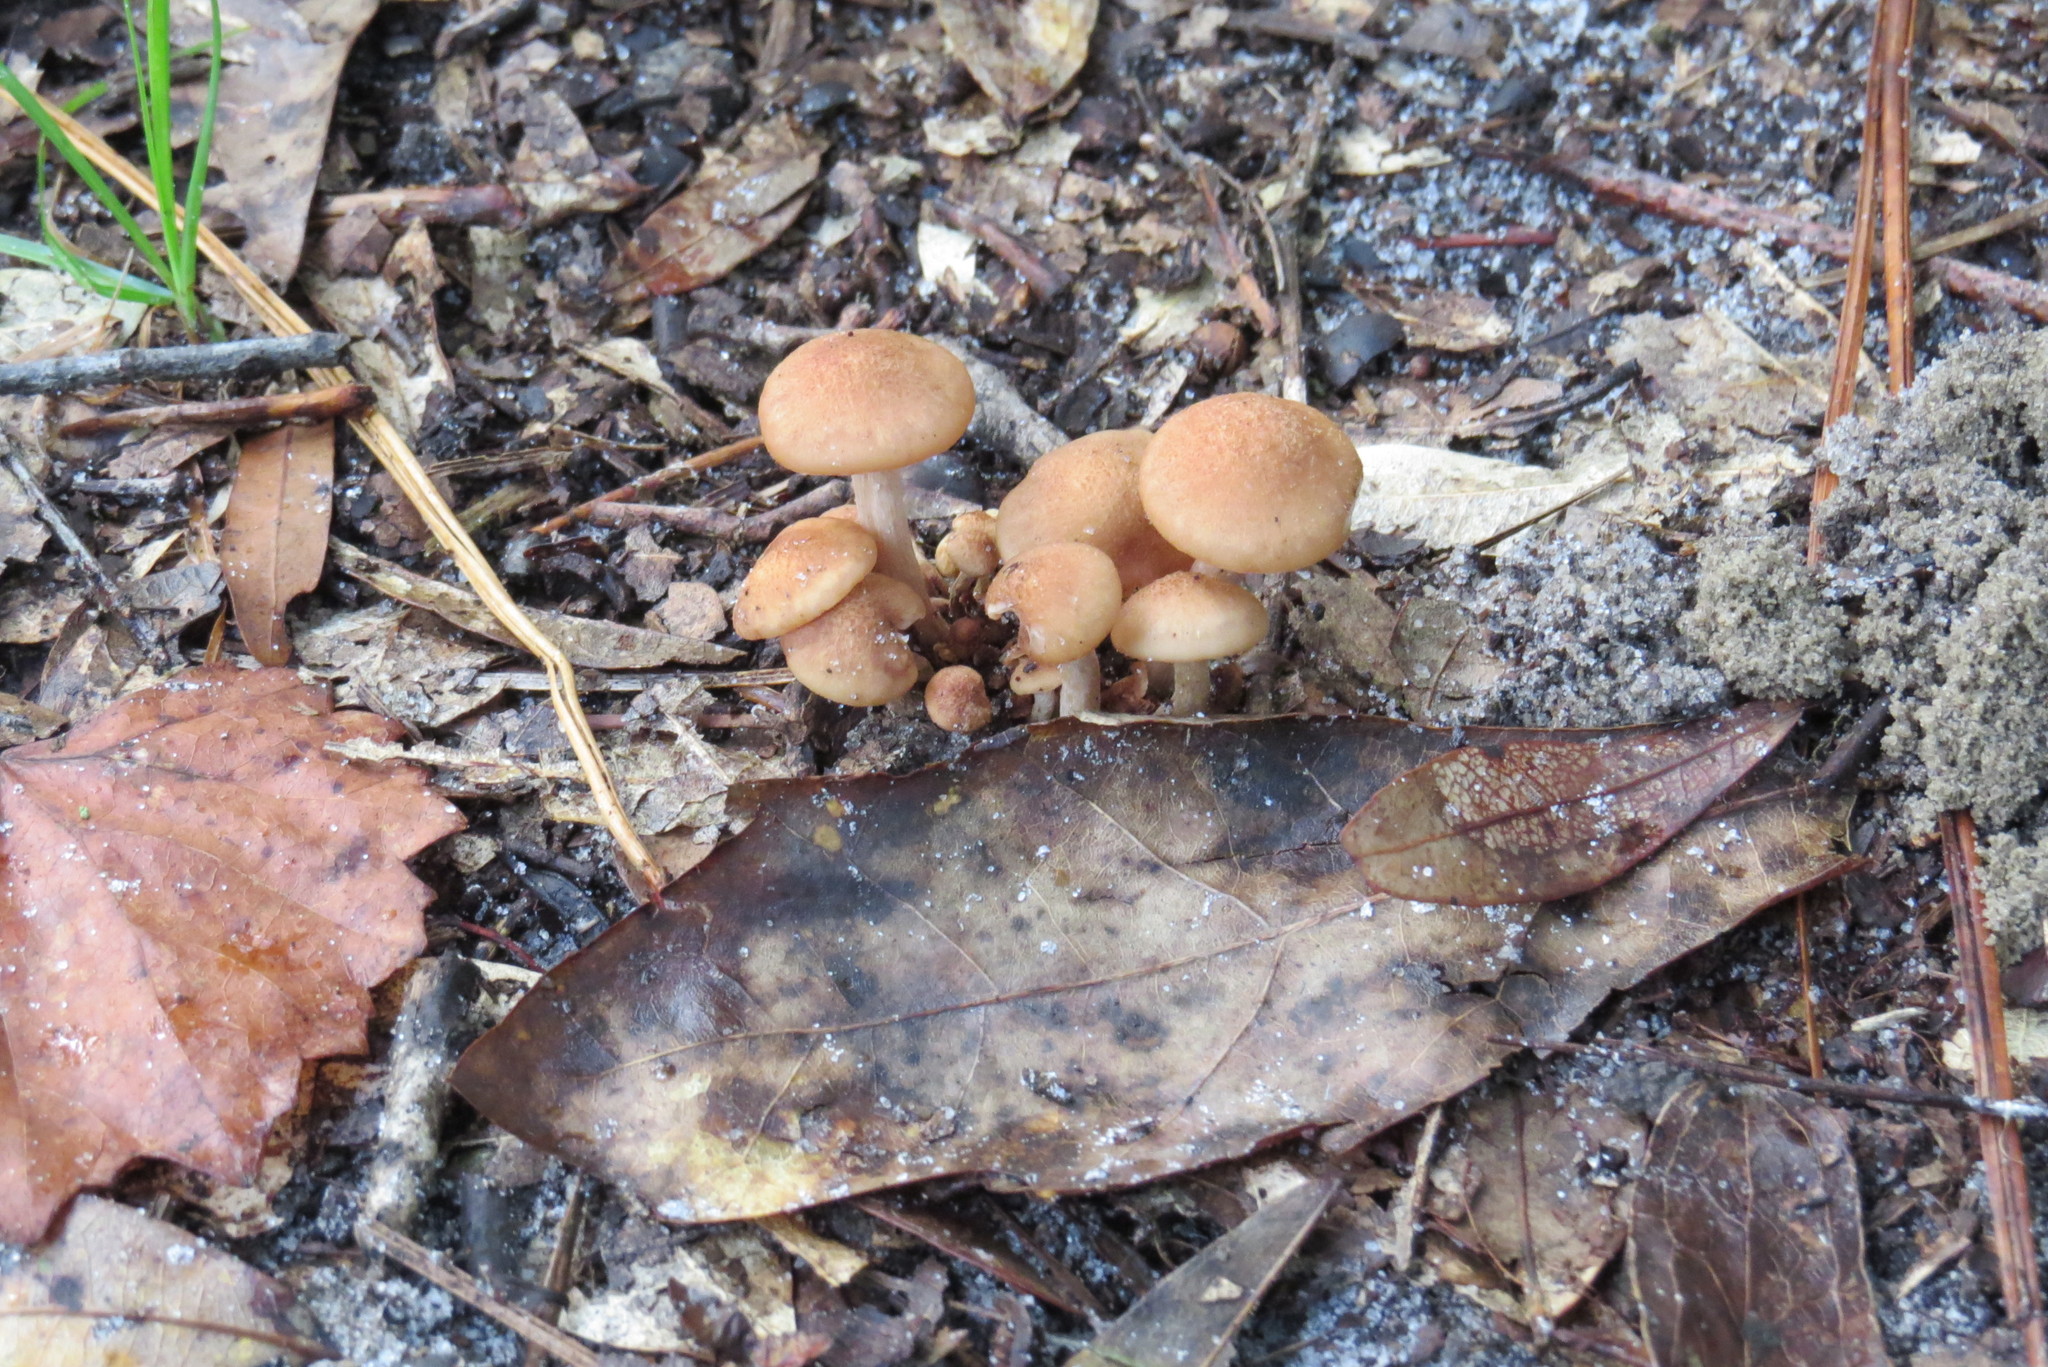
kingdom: Fungi
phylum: Basidiomycota
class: Agaricomycetes
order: Agaricales
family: Physalacriaceae
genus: Desarmillaria
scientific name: Desarmillaria caespitosa
